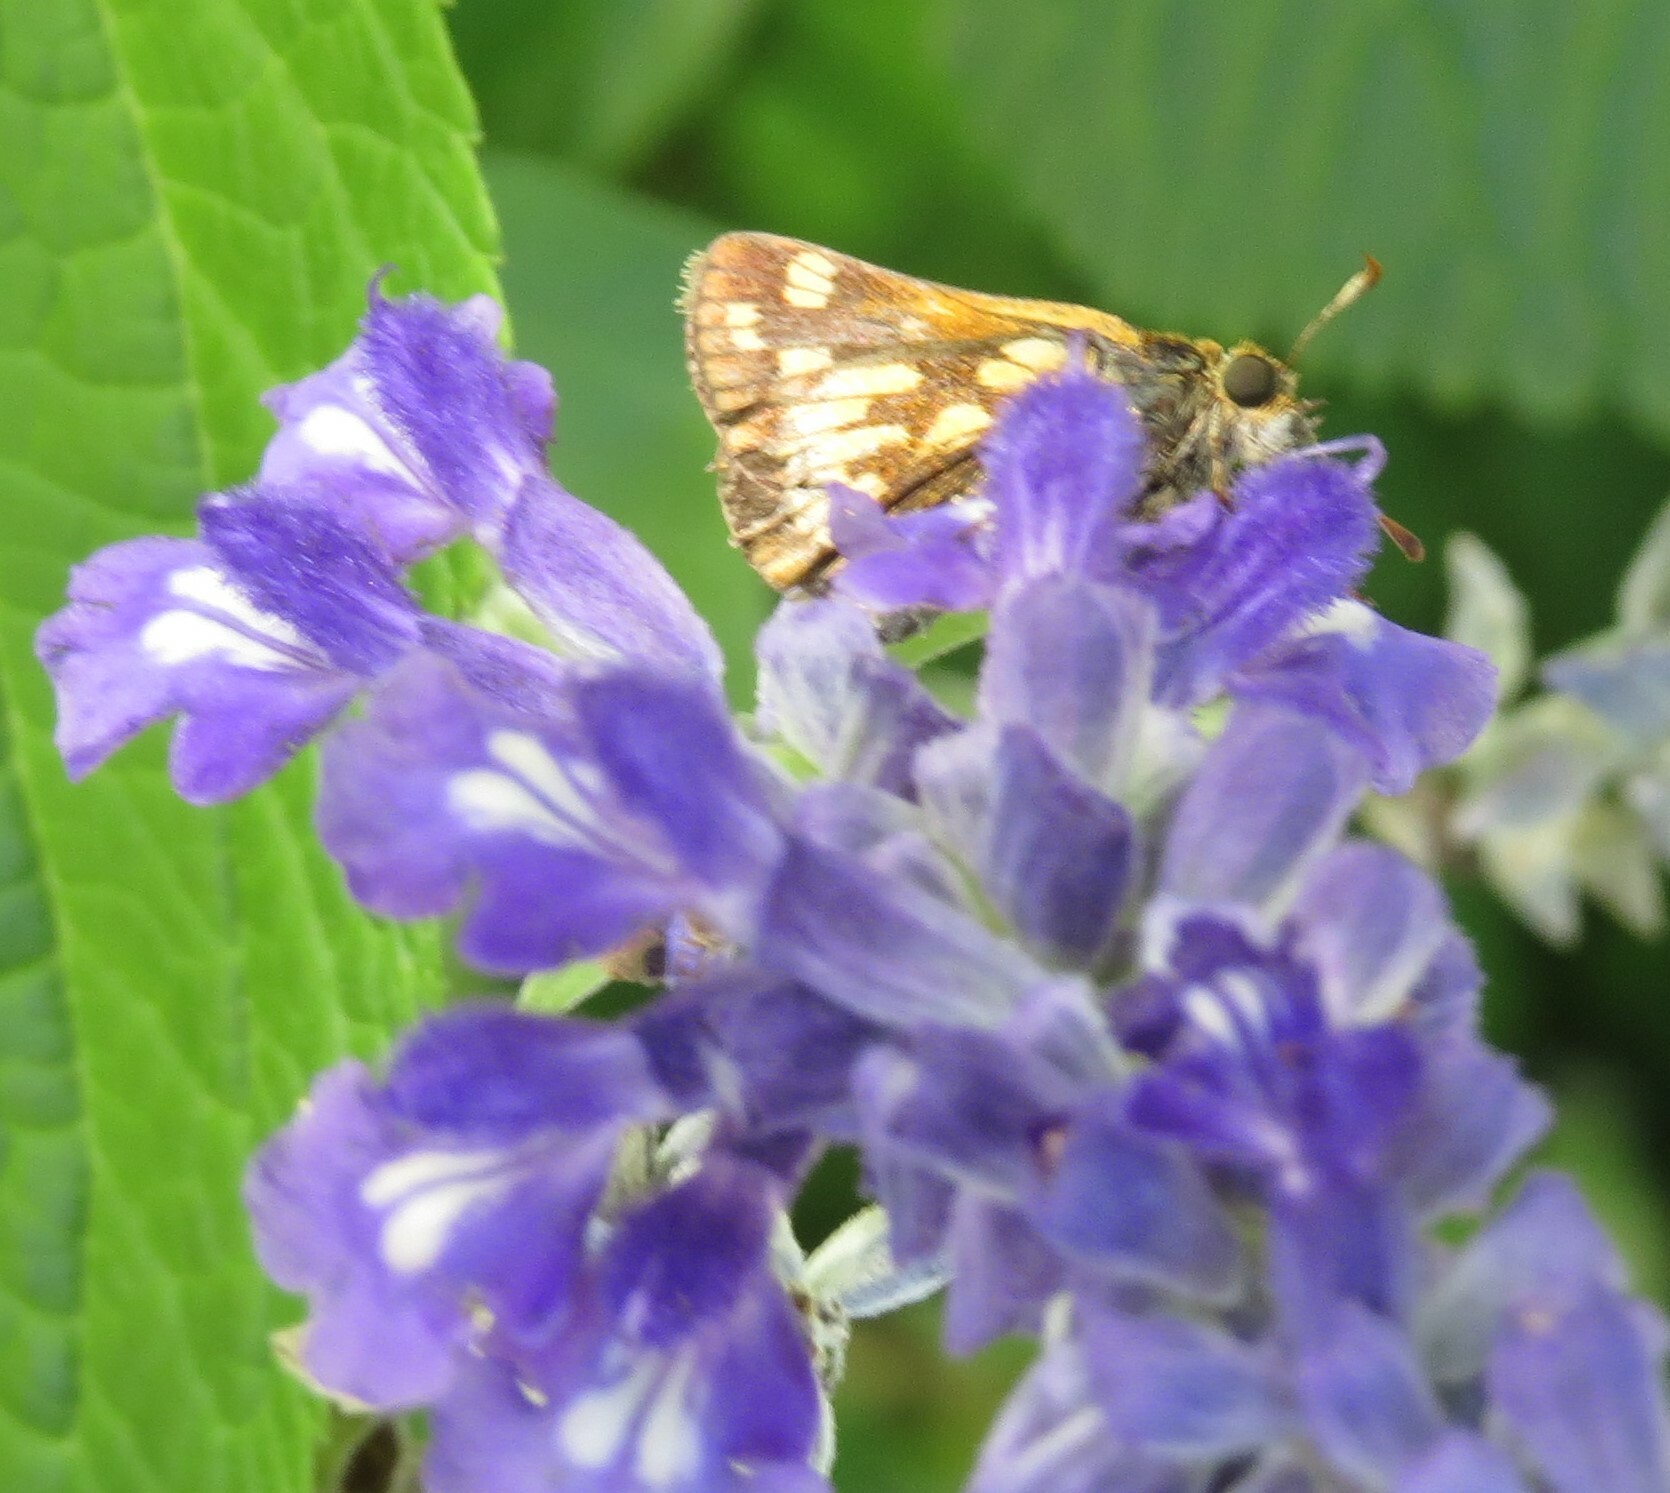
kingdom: Animalia
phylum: Arthropoda
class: Insecta
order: Lepidoptera
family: Hesperiidae
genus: Polites
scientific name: Polites coras
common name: Peck's skipper
